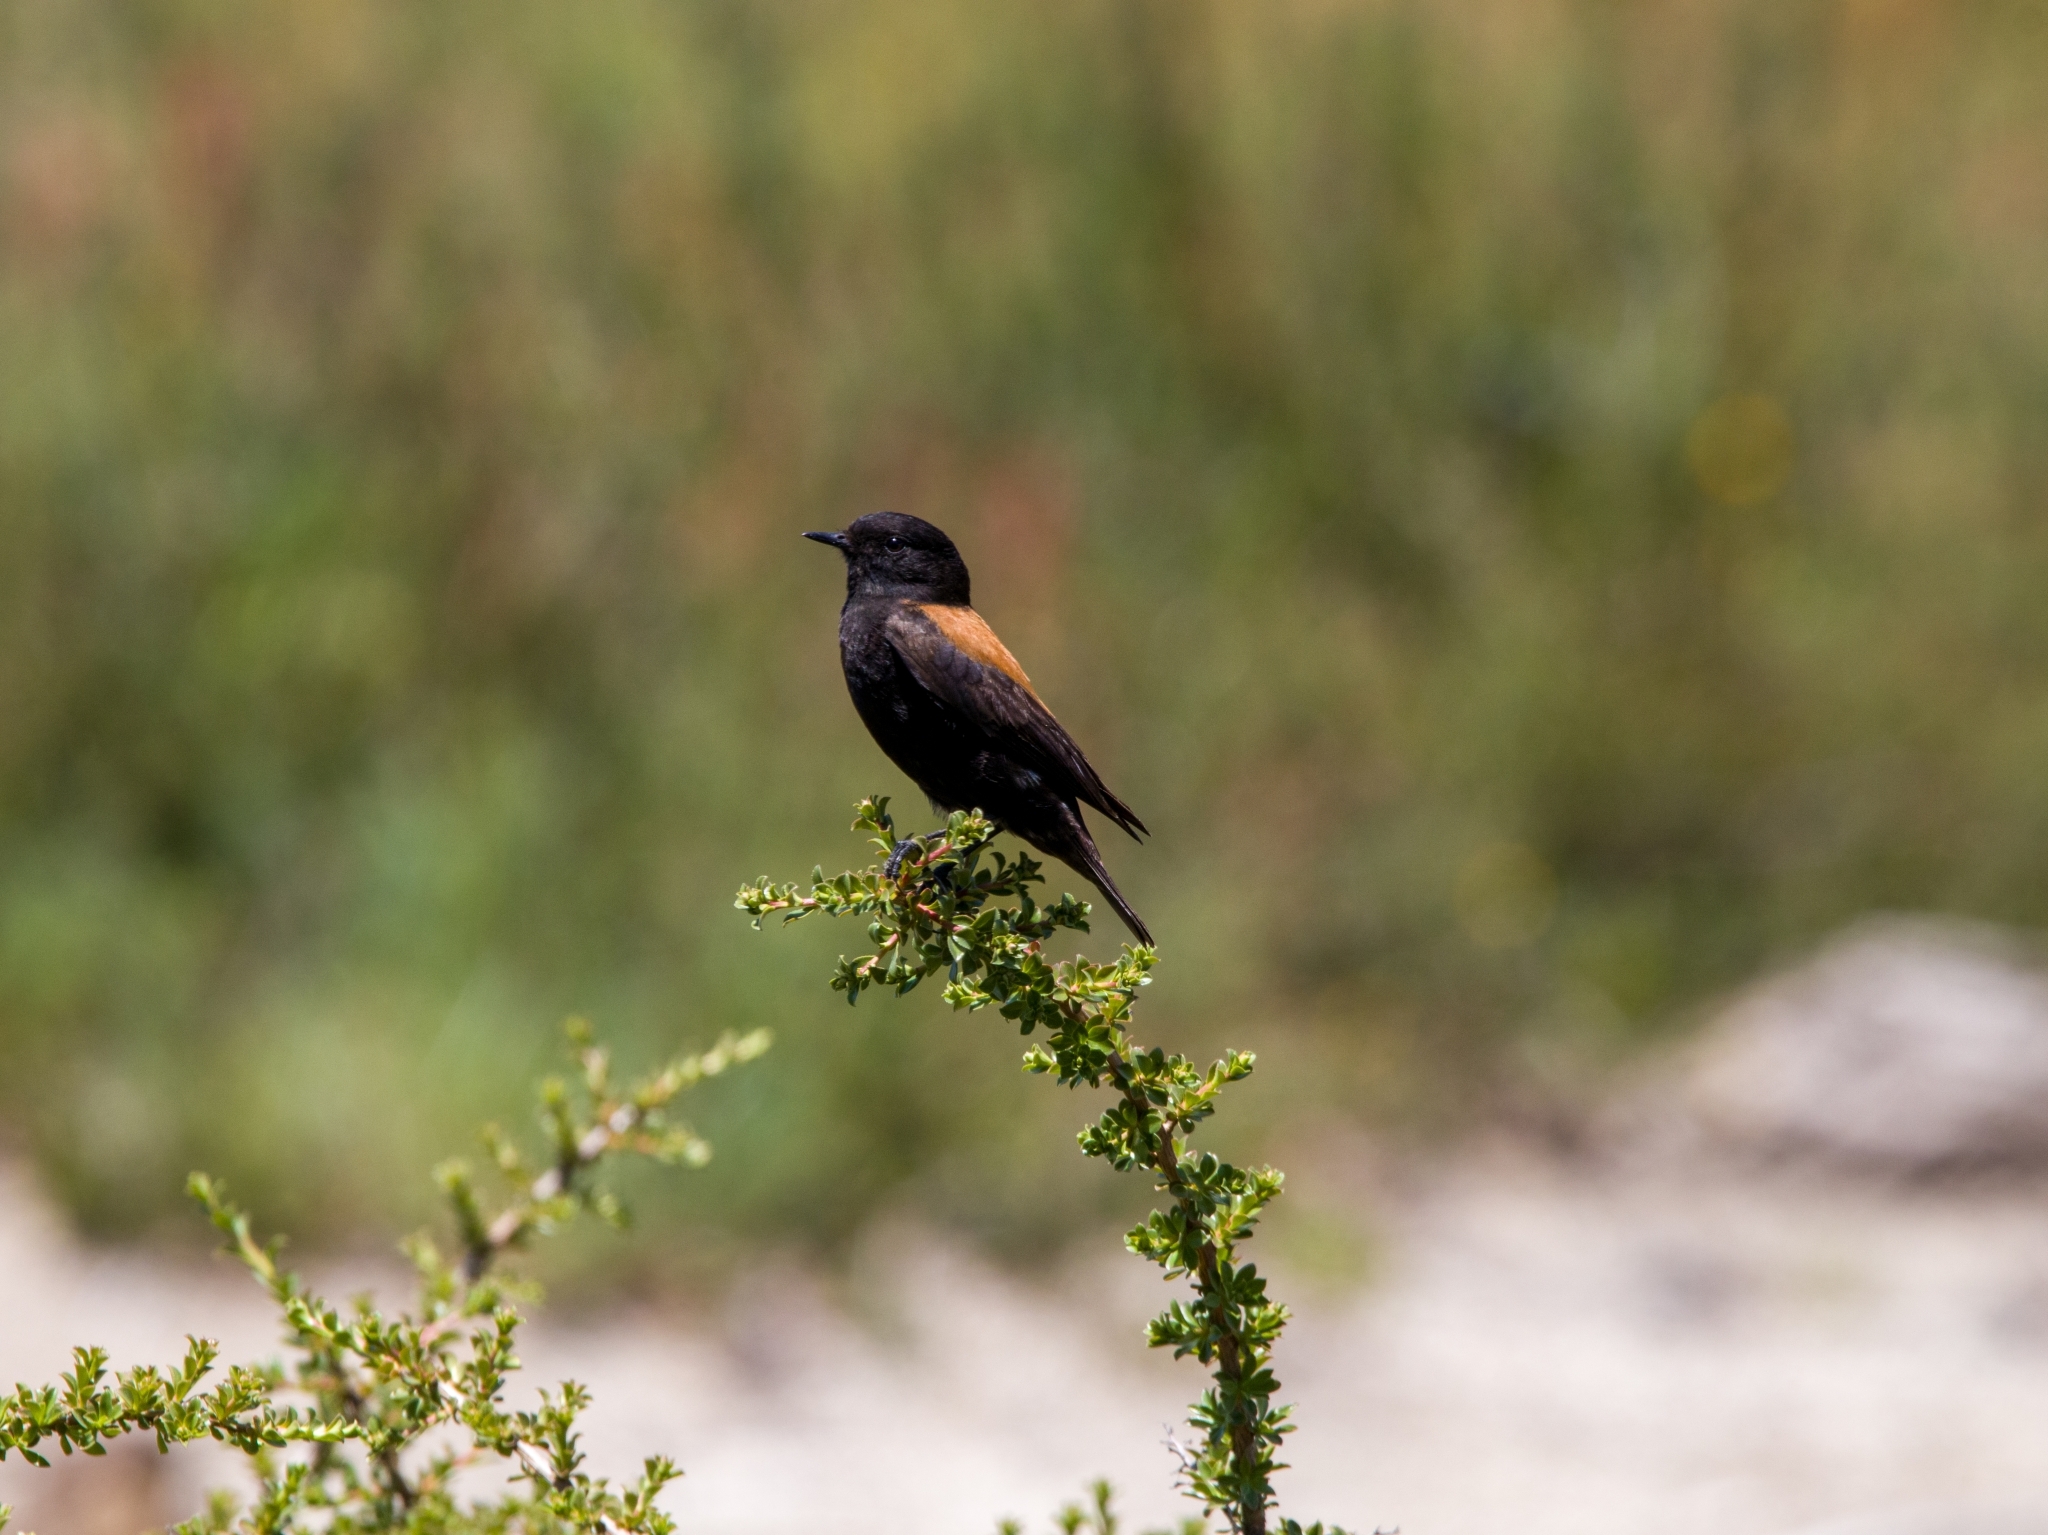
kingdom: Animalia
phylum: Chordata
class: Aves
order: Passeriformes
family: Tyrannidae
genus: Lessonia
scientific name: Lessonia rufa
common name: Austral negrito
